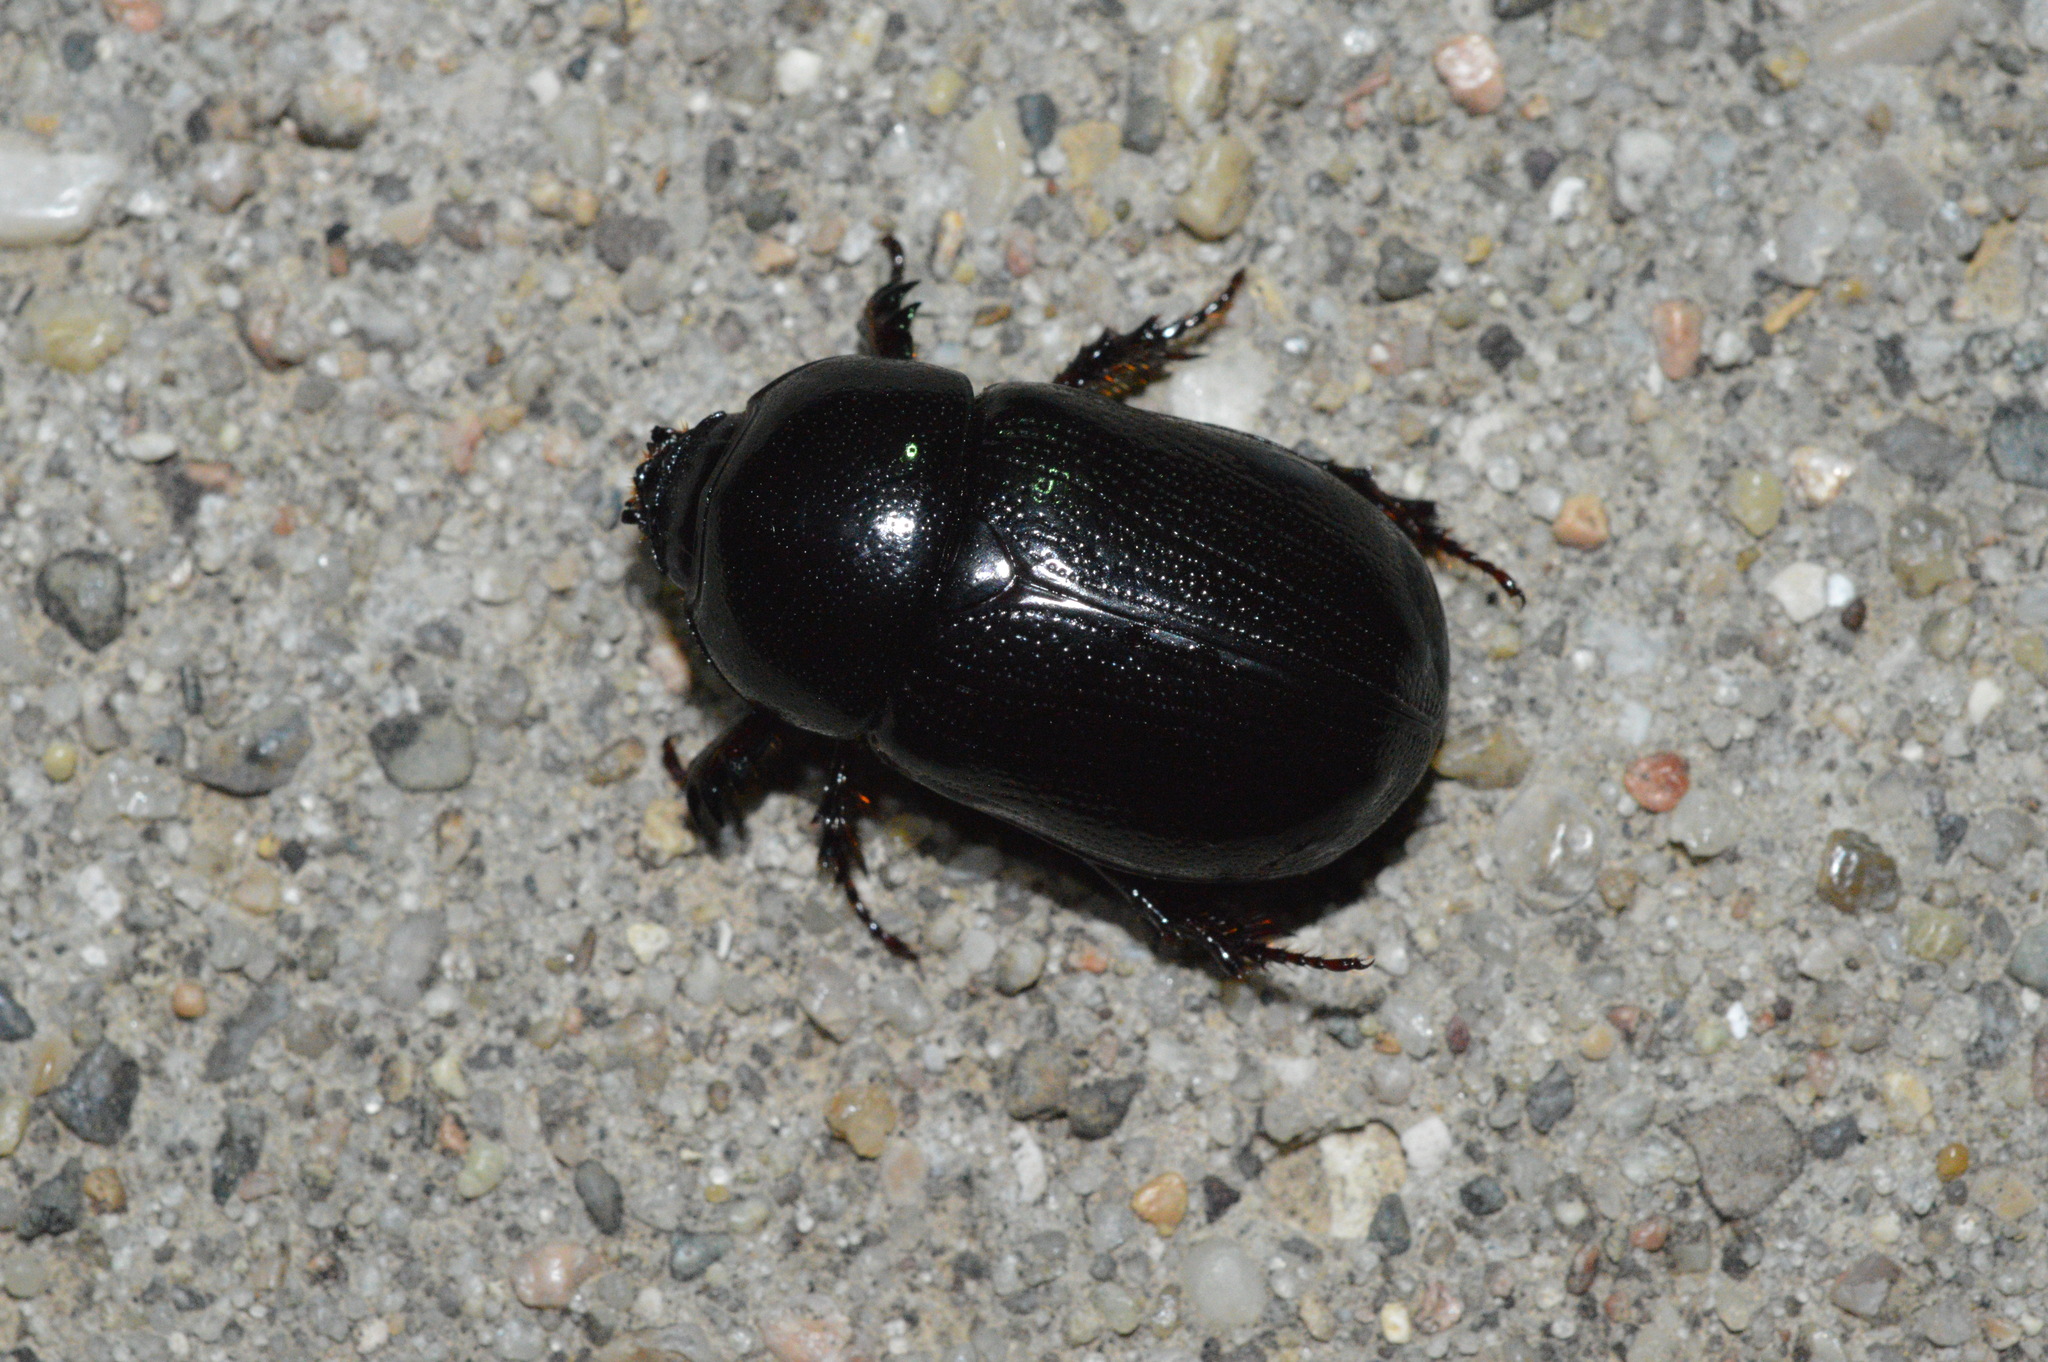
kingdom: Animalia
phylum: Arthropoda
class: Insecta
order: Coleoptera
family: Scarabaeidae
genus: Ligyrus
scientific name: Ligyrus relictus
